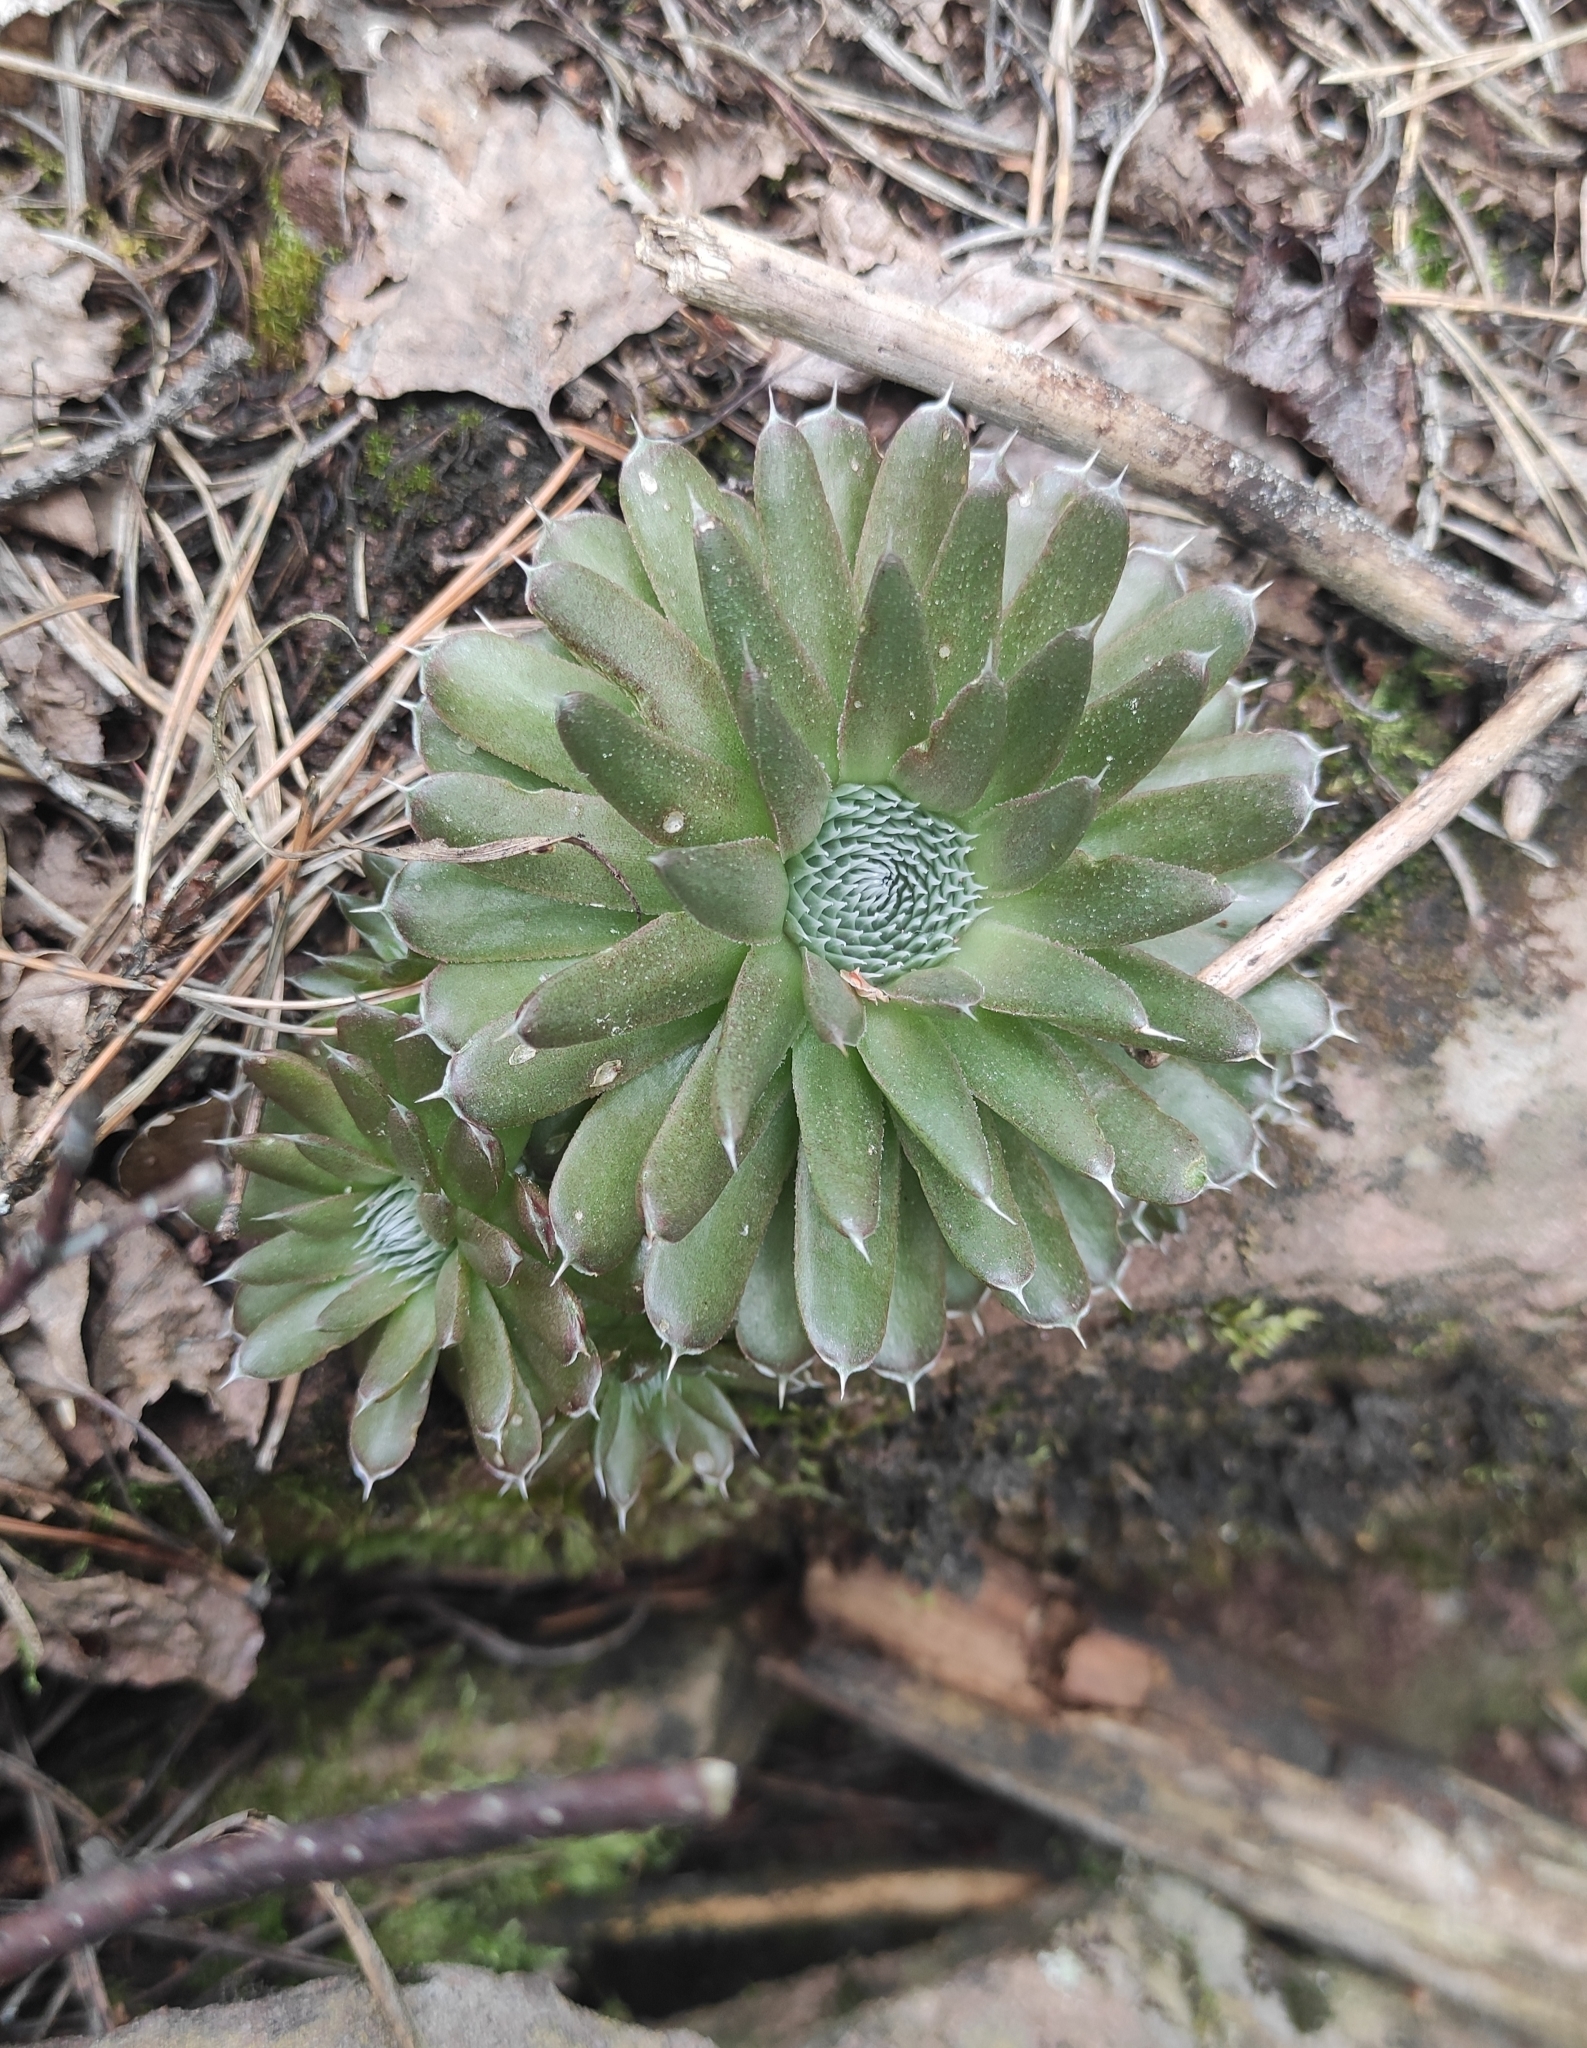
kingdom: Plantae
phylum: Tracheophyta
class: Magnoliopsida
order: Saxifragales
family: Crassulaceae
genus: Orostachys
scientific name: Orostachys spinosa
